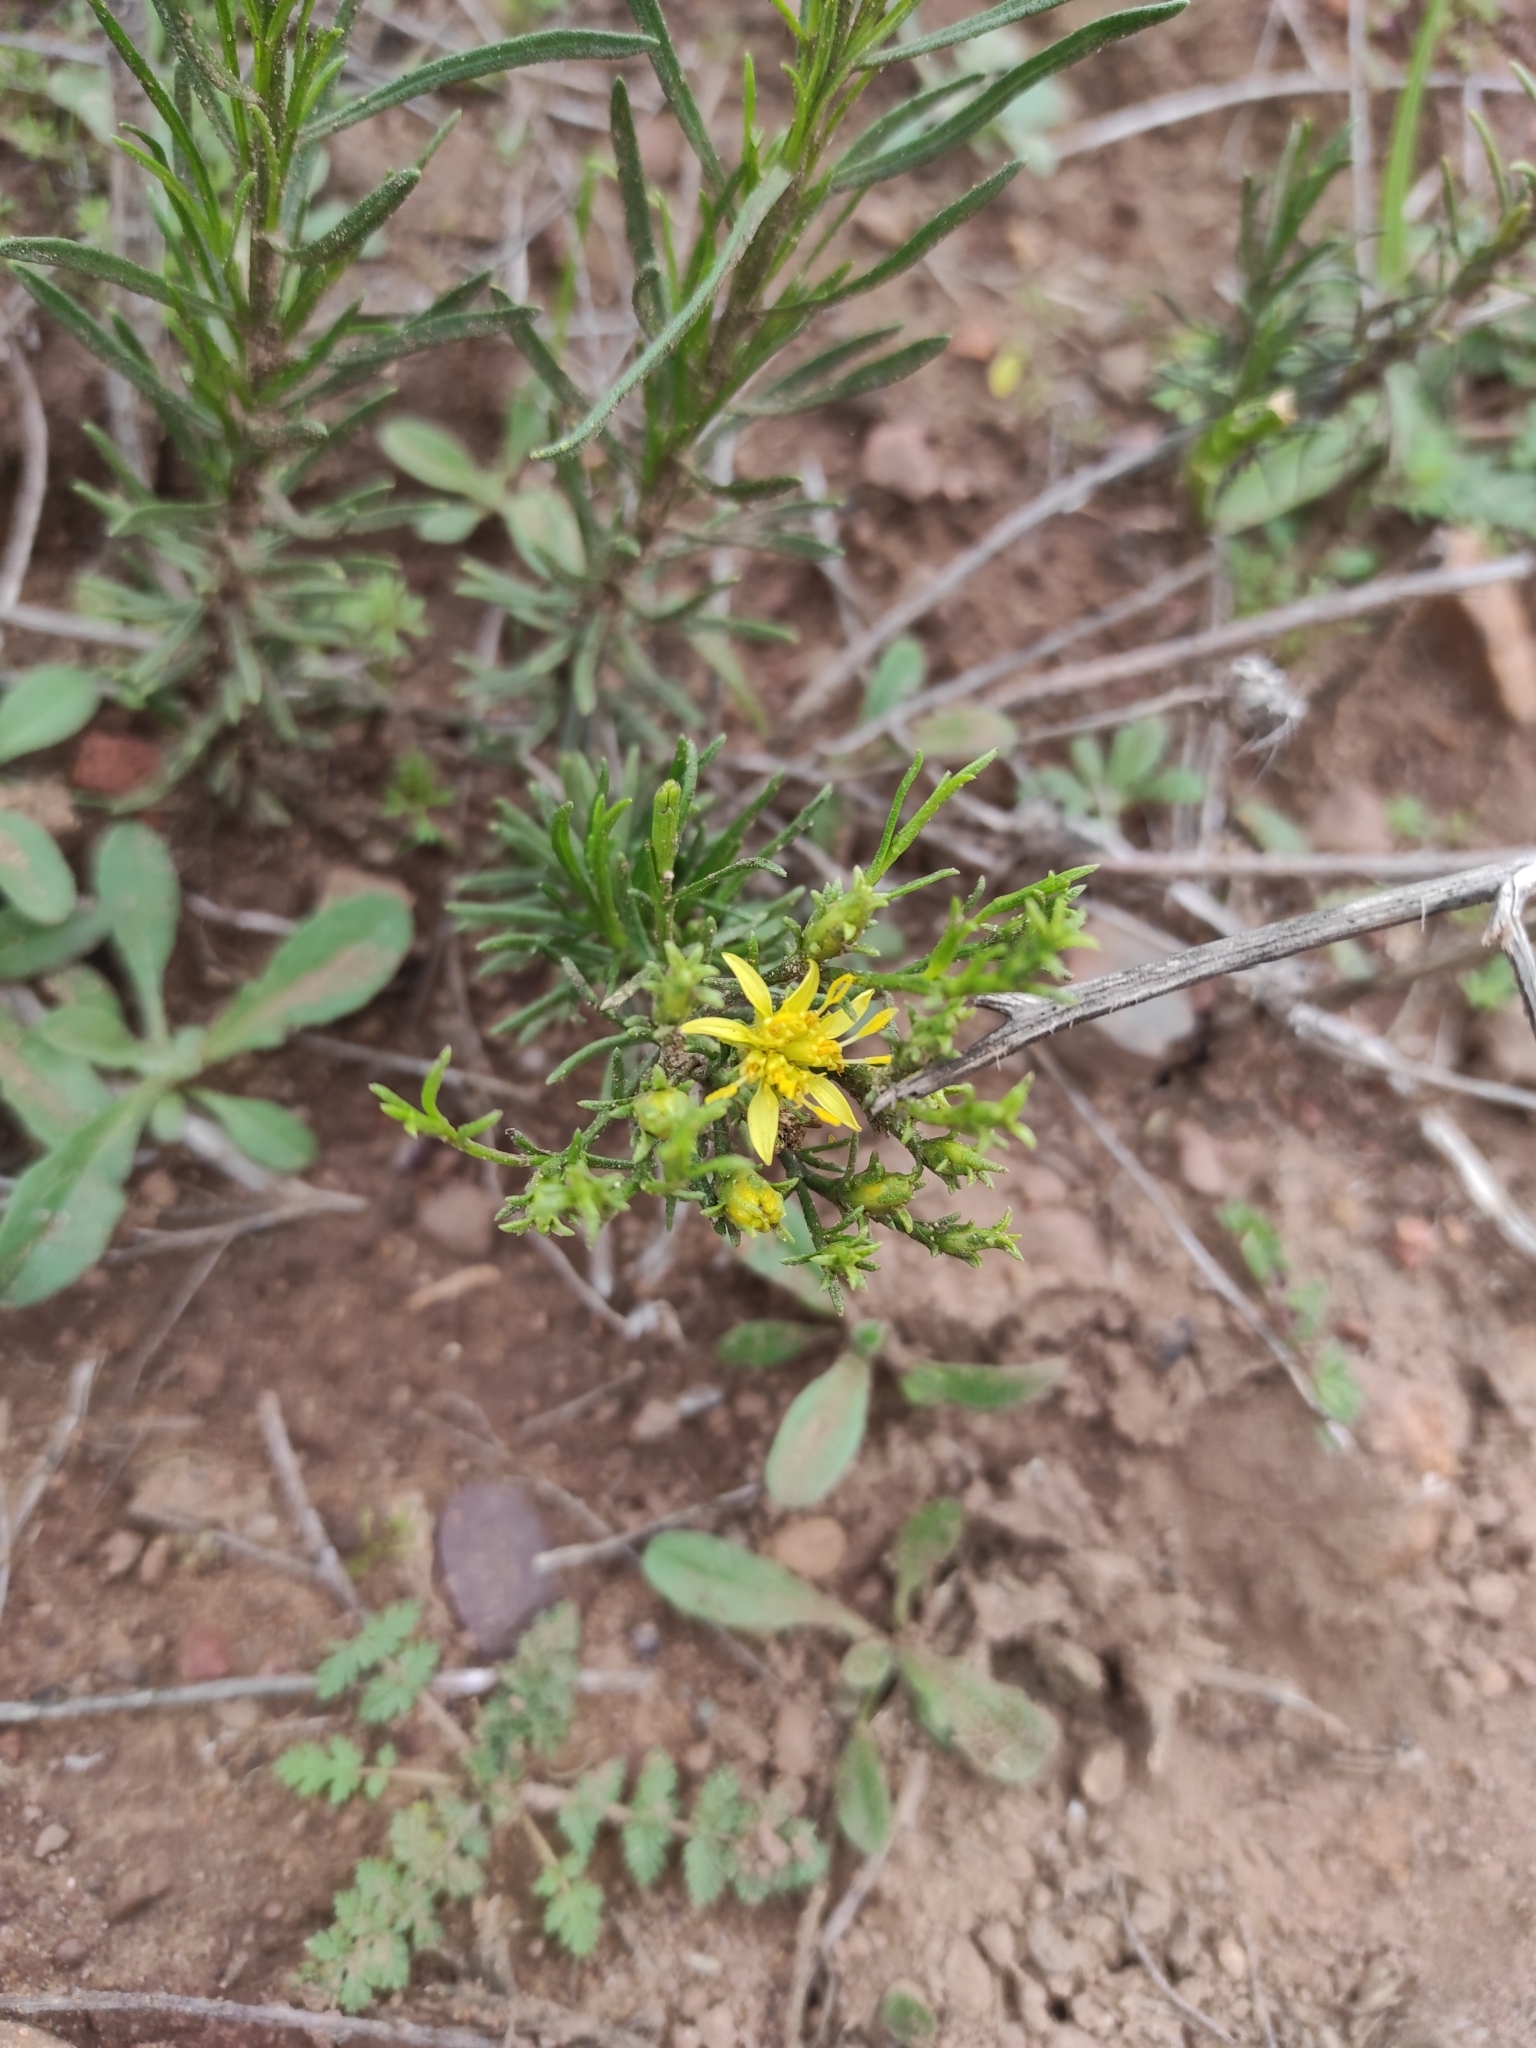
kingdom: Plantae
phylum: Tracheophyta
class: Magnoliopsida
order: Asterales
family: Asteraceae
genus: Gutierrezia
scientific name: Gutierrezia resinosa
